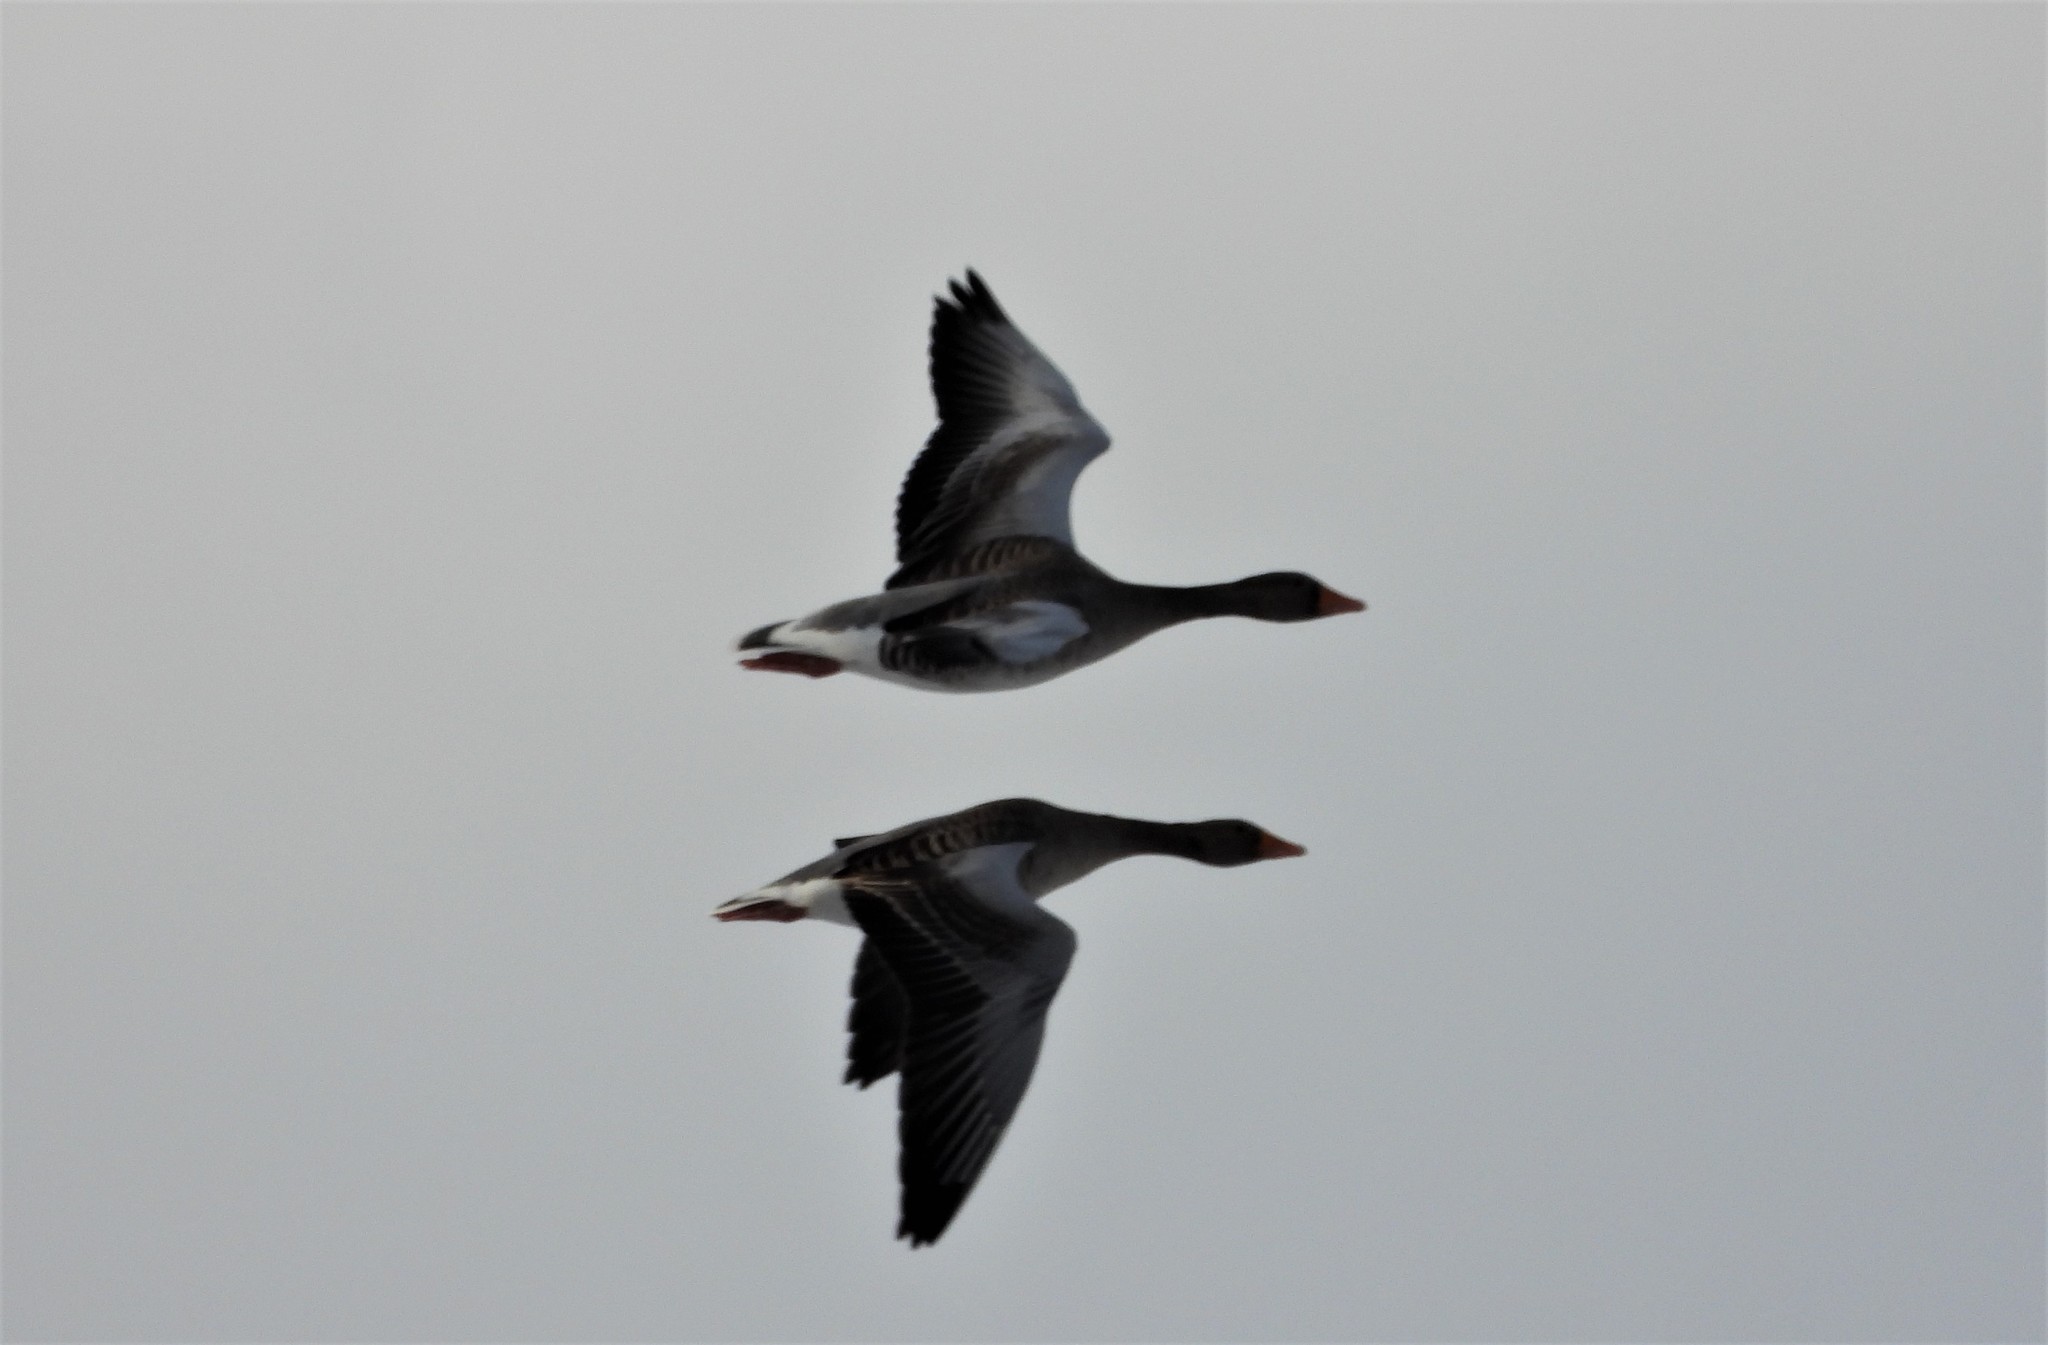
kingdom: Animalia
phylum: Chordata
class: Aves
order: Anseriformes
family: Anatidae
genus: Anser
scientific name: Anser anser
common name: Greylag goose
